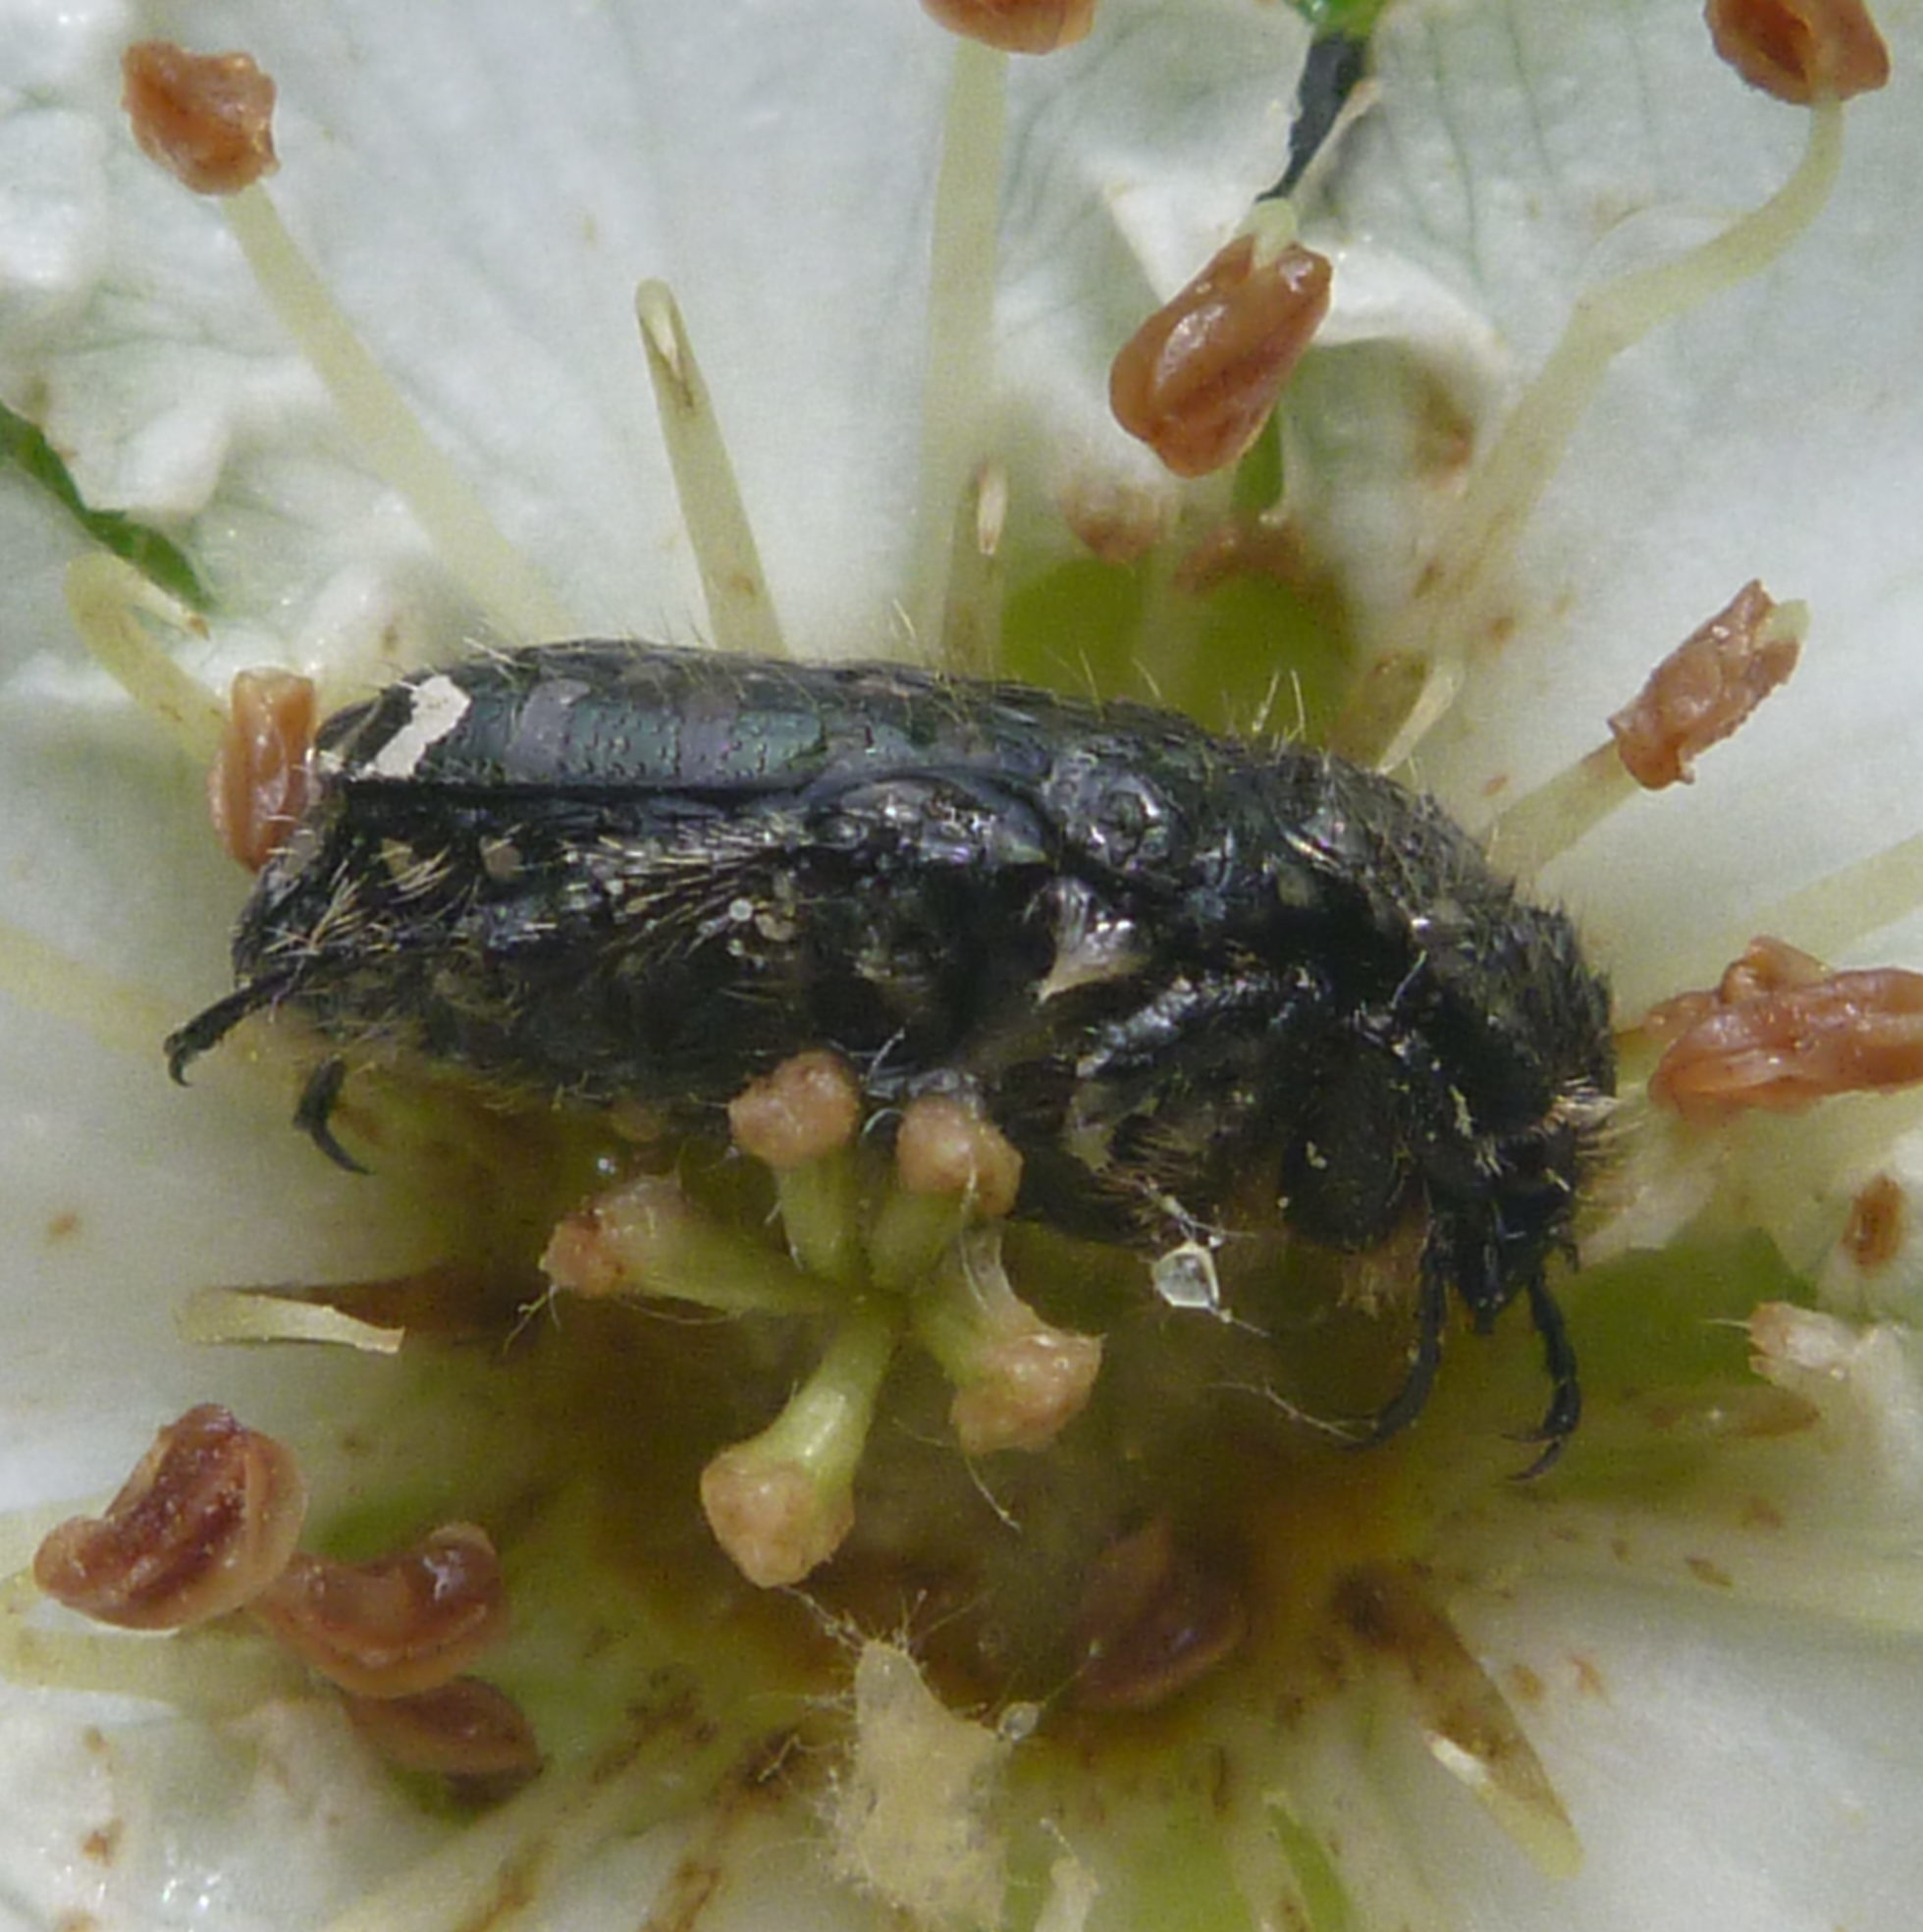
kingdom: Animalia
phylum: Arthropoda
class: Insecta
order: Coleoptera
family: Scarabaeidae
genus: Oxythyrea
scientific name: Oxythyrea funesta
